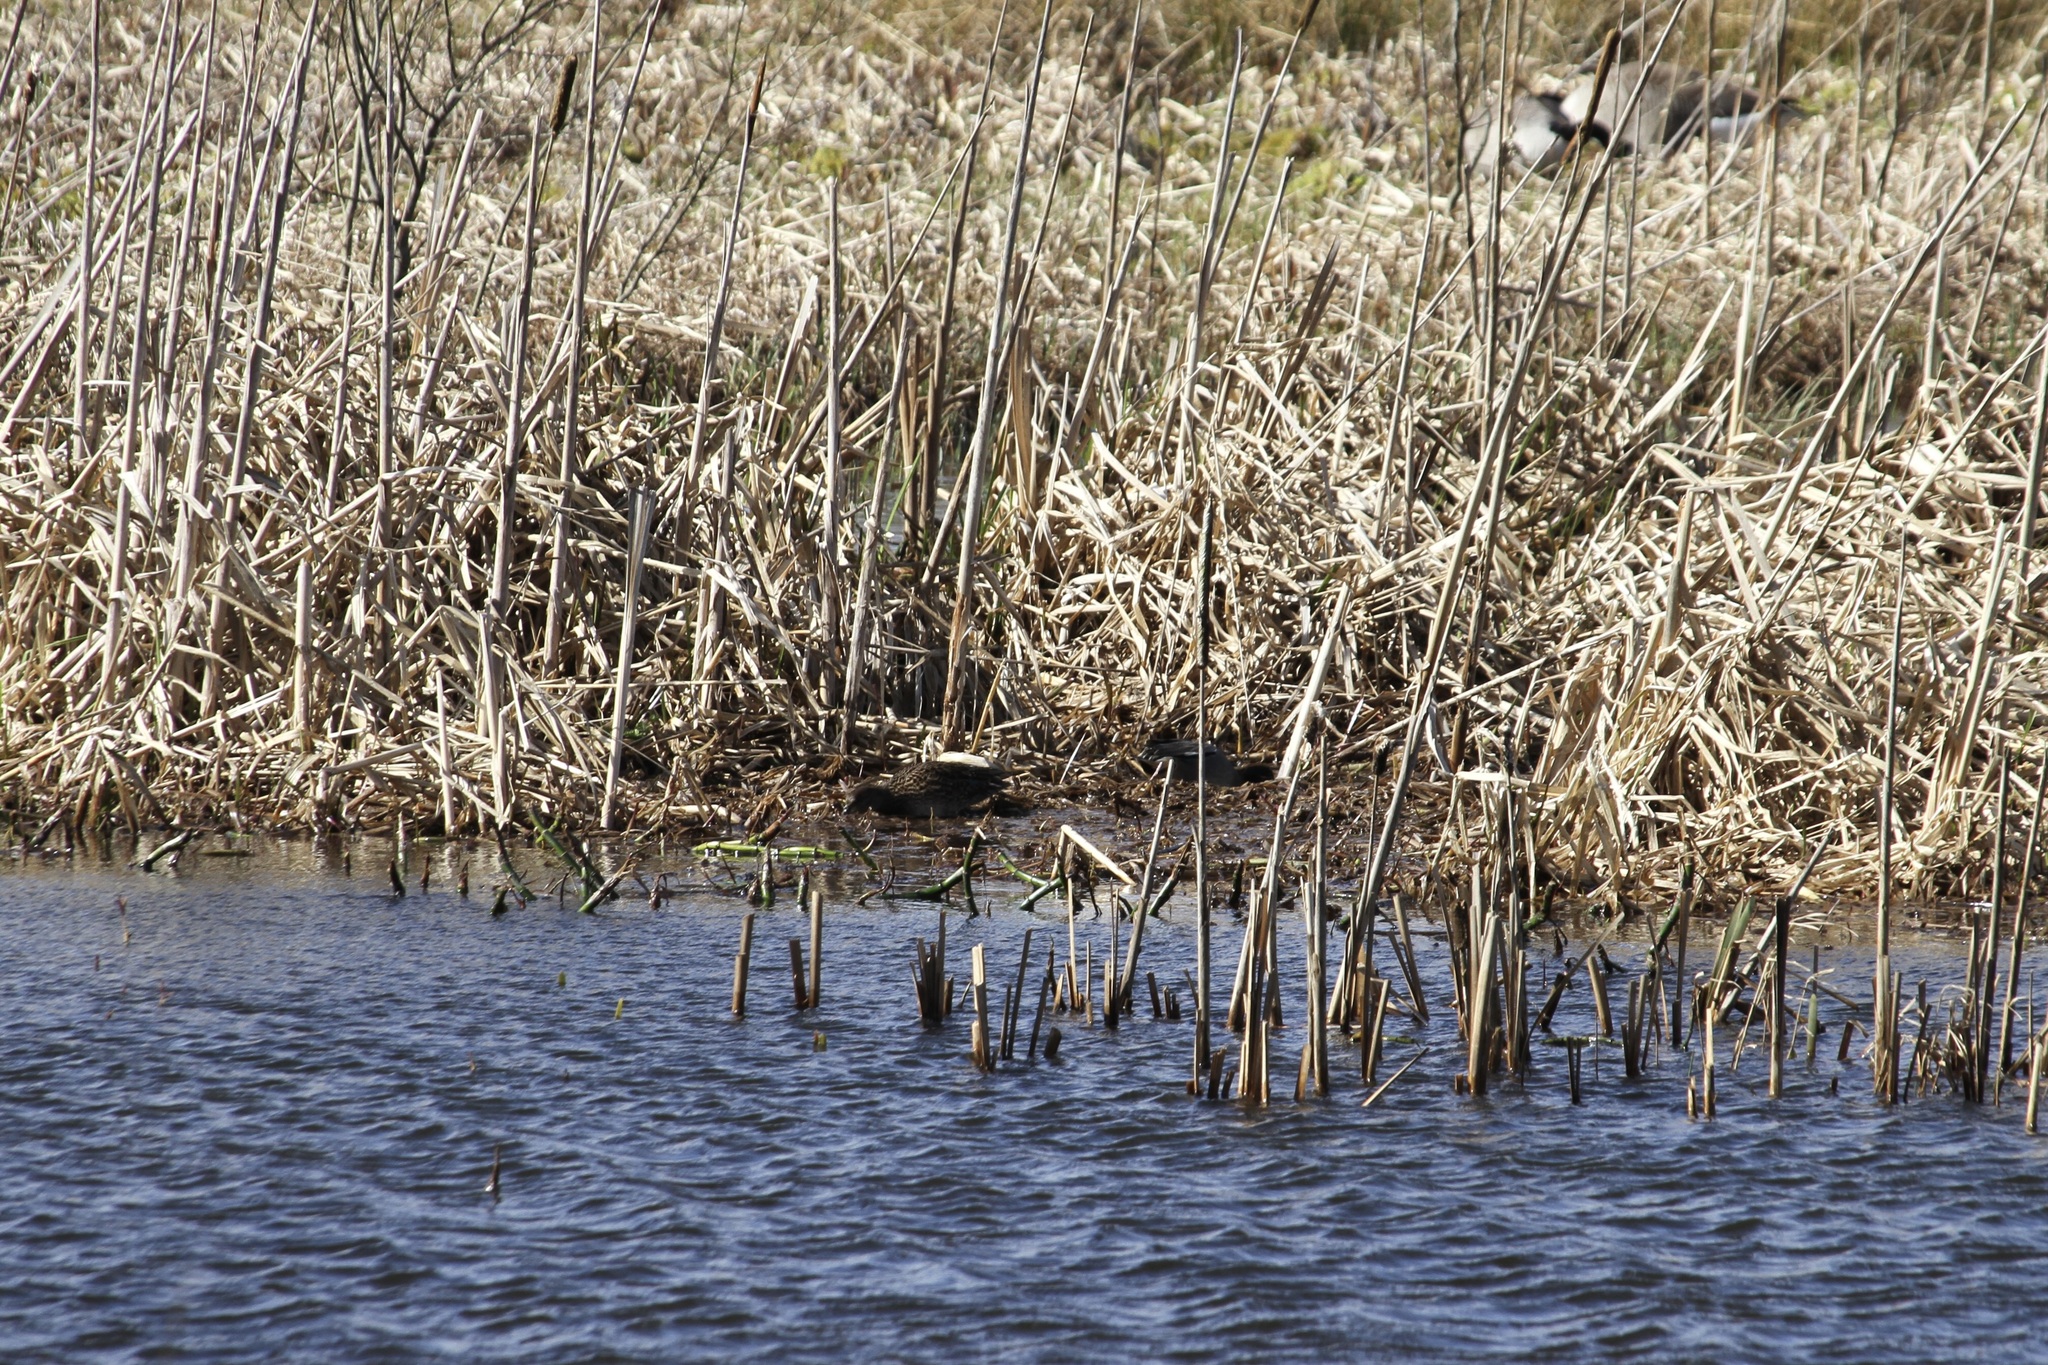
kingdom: Animalia
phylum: Chordata
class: Aves
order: Anseriformes
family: Anatidae
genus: Anas
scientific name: Anas crecca
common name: Eurasian teal
